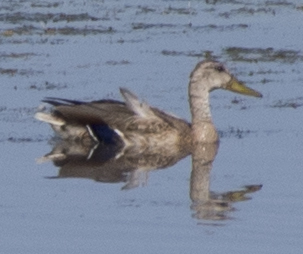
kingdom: Animalia
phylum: Chordata
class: Aves
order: Anseriformes
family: Anatidae
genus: Anas
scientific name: Anas platyrhynchos
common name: Mallard
